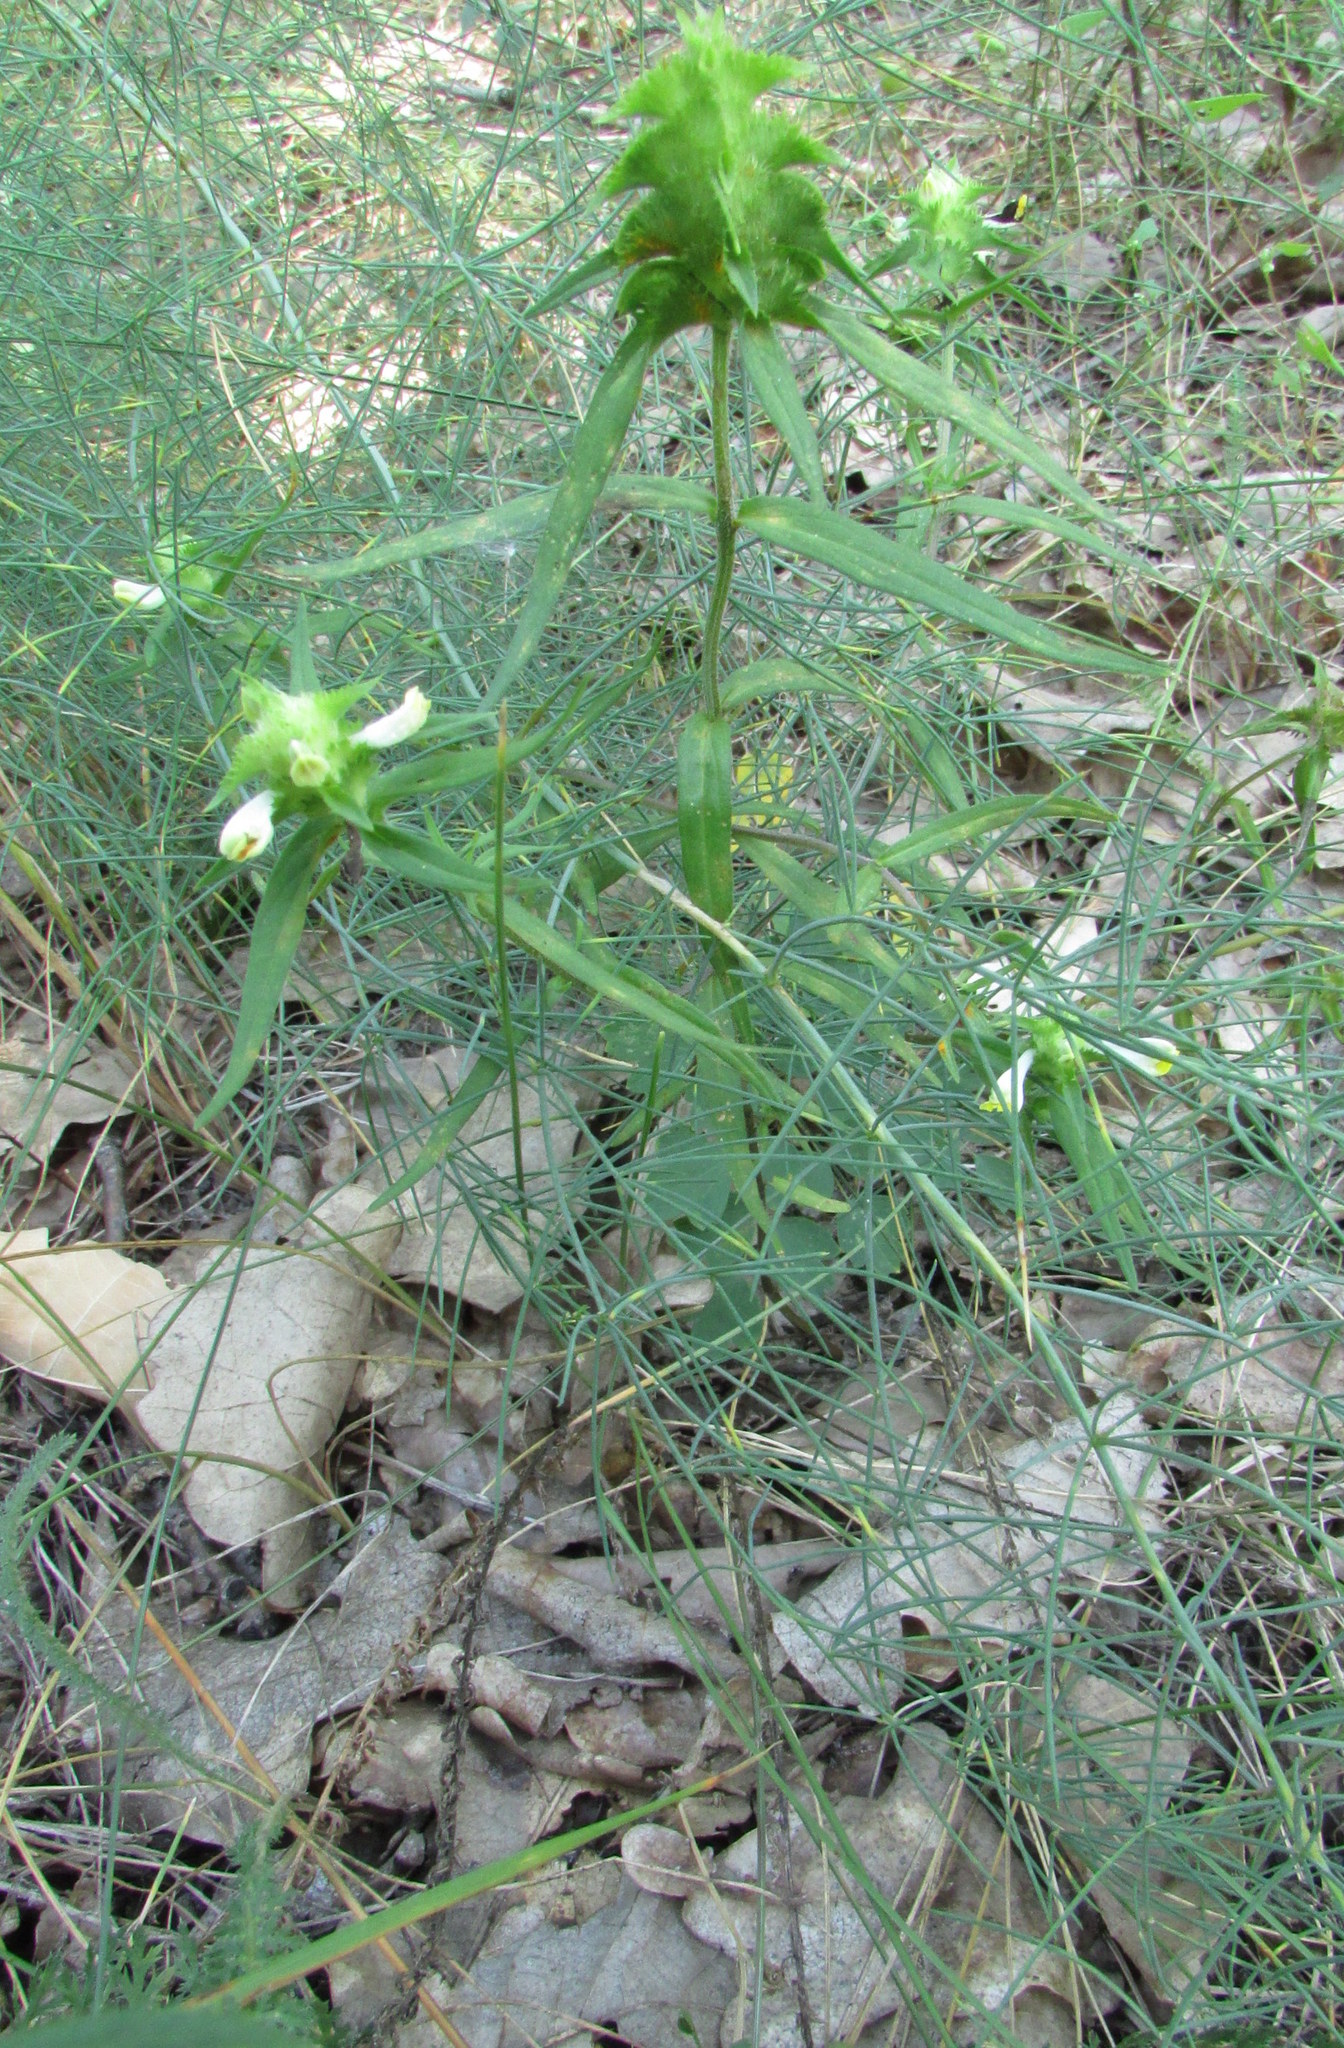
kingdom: Plantae
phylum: Tracheophyta
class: Magnoliopsida
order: Lamiales
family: Orobanchaceae
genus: Melampyrum
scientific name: Melampyrum cristatum
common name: Crested cow-wheat
